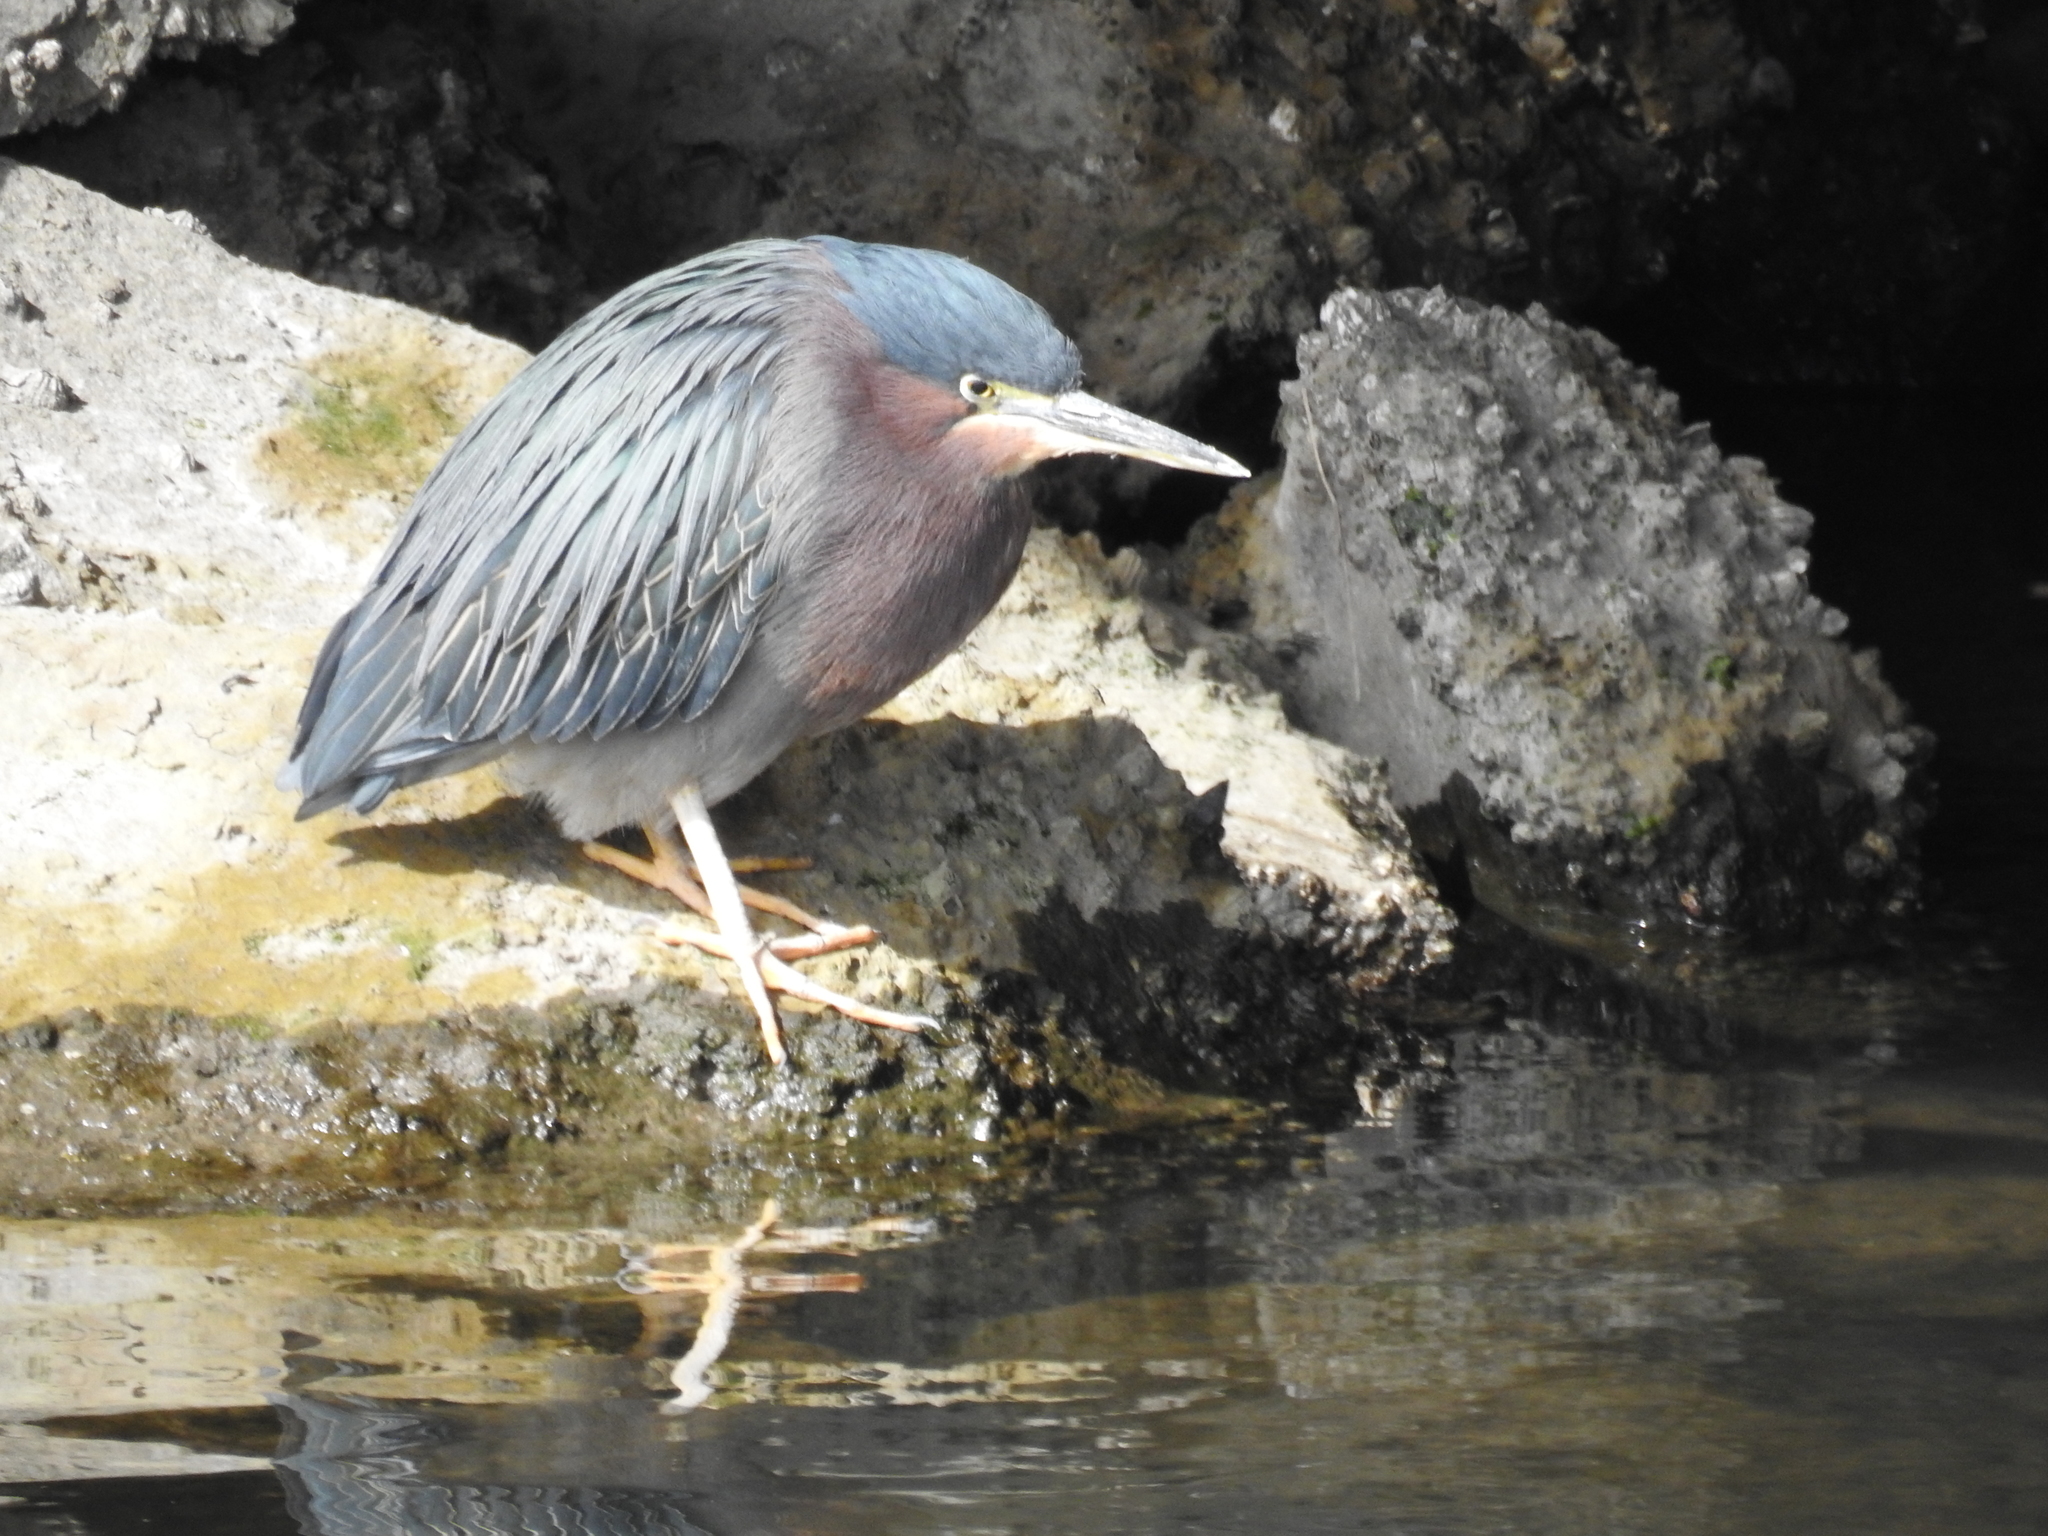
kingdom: Animalia
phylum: Chordata
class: Aves
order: Pelecaniformes
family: Ardeidae
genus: Butorides
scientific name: Butorides virescens
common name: Green heron
